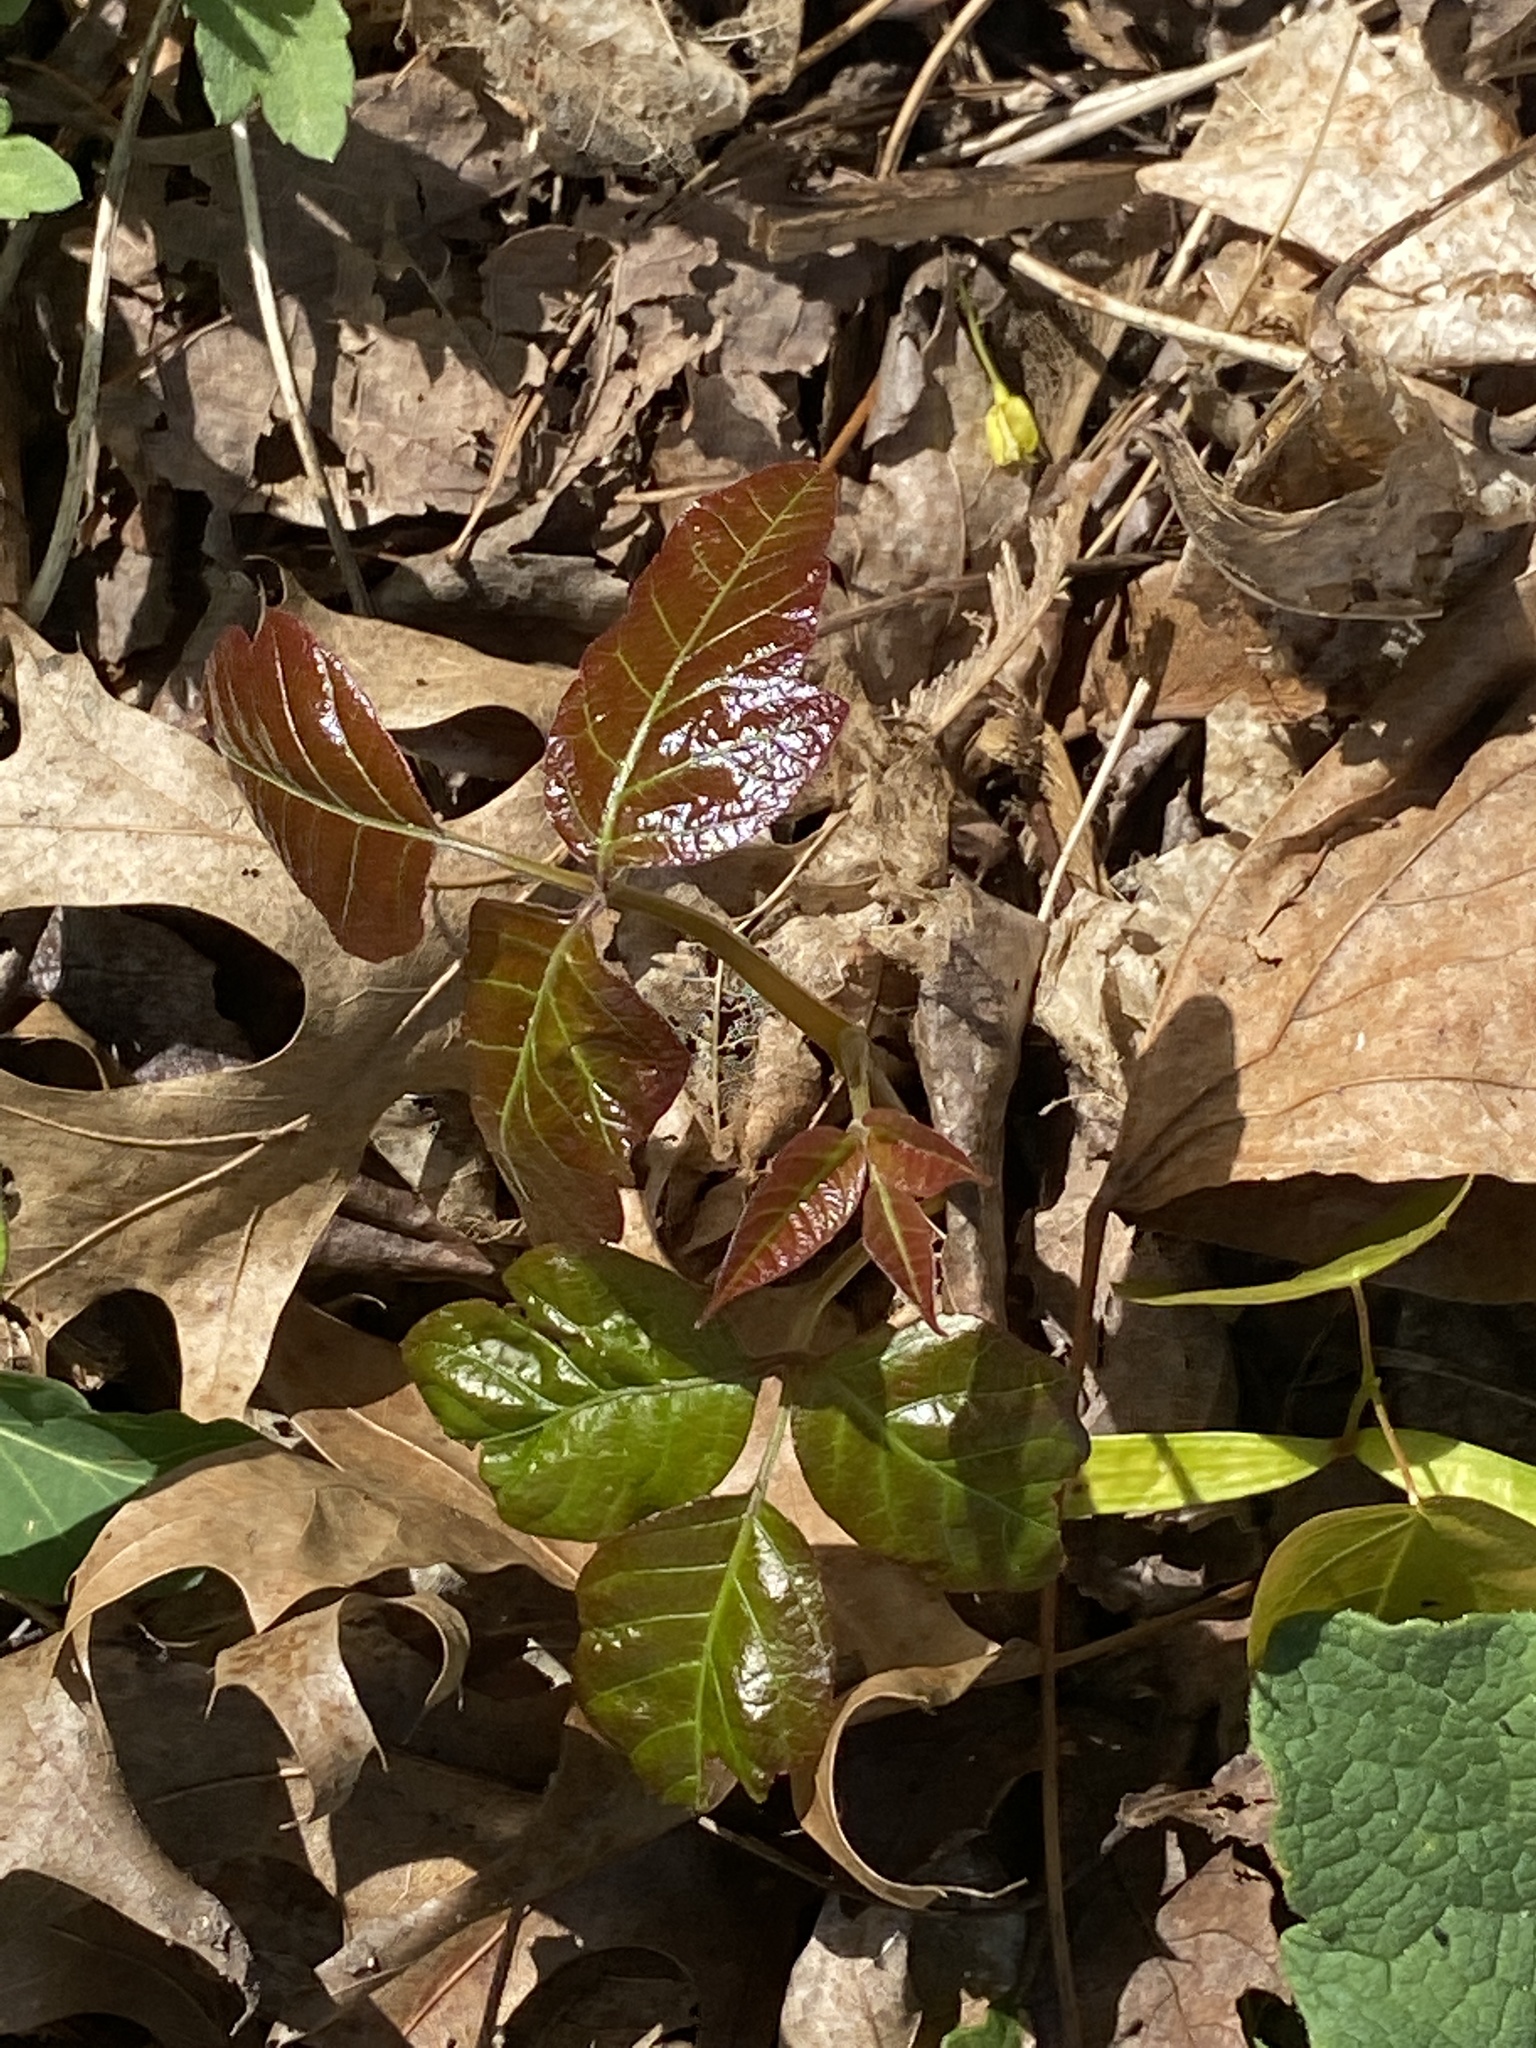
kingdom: Plantae
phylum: Tracheophyta
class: Magnoliopsida
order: Sapindales
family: Anacardiaceae
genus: Toxicodendron
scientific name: Toxicodendron radicans
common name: Poison ivy
